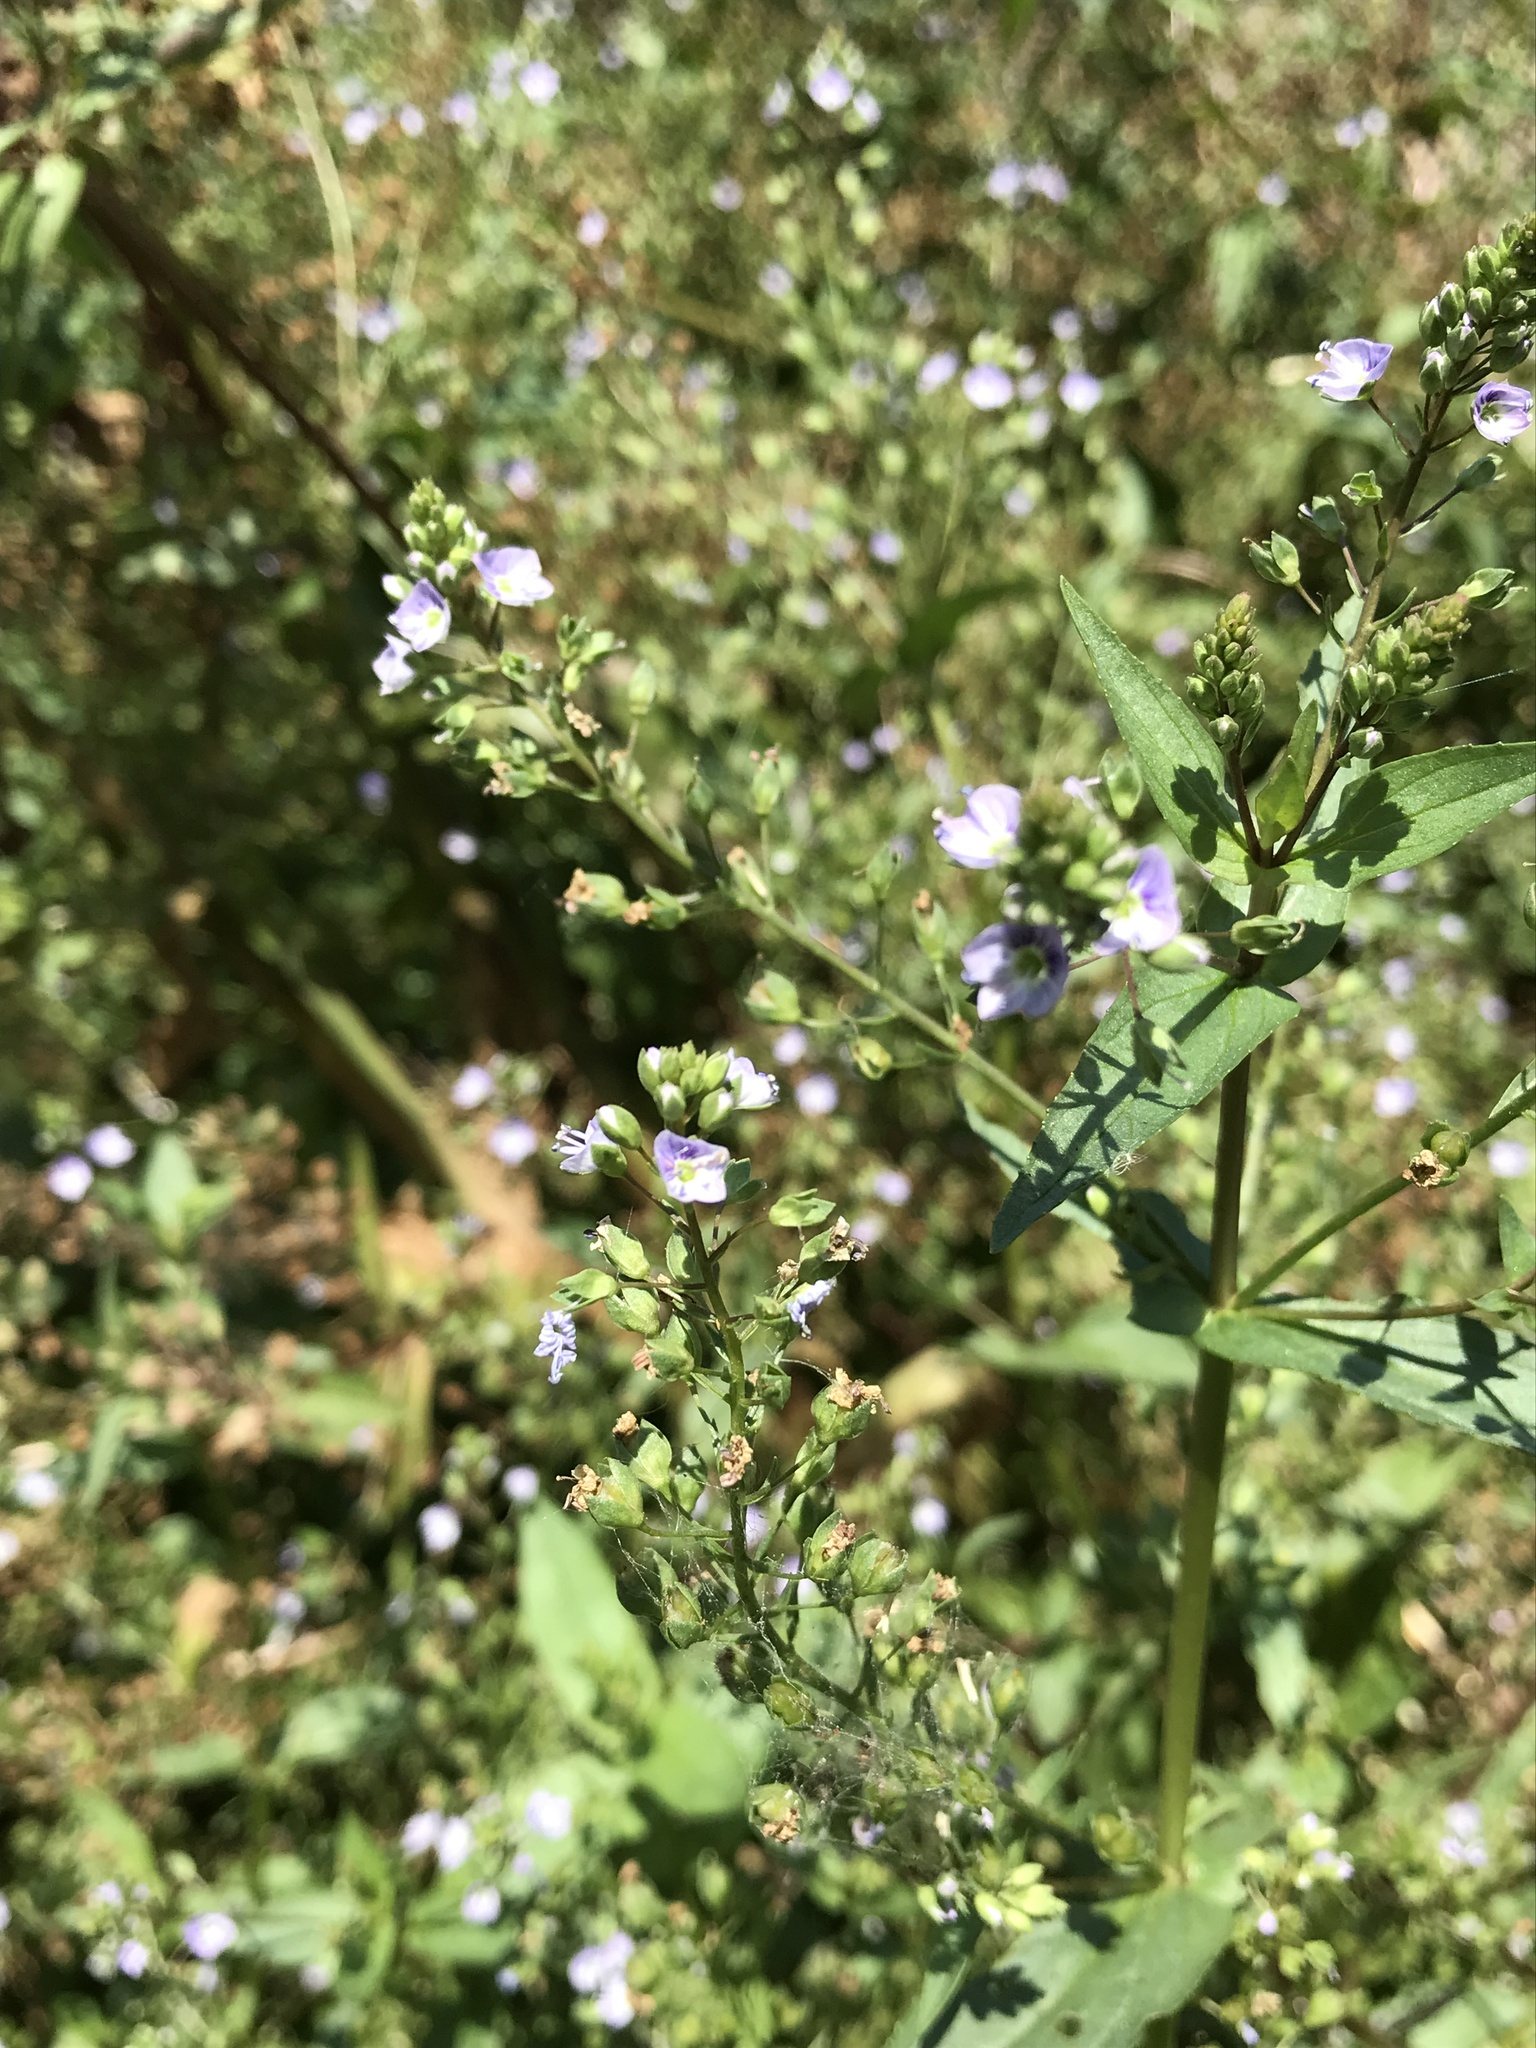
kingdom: Plantae
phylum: Tracheophyta
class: Magnoliopsida
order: Lamiales
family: Plantaginaceae
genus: Veronica
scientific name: Veronica anagallis-aquatica
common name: Water speedwell
